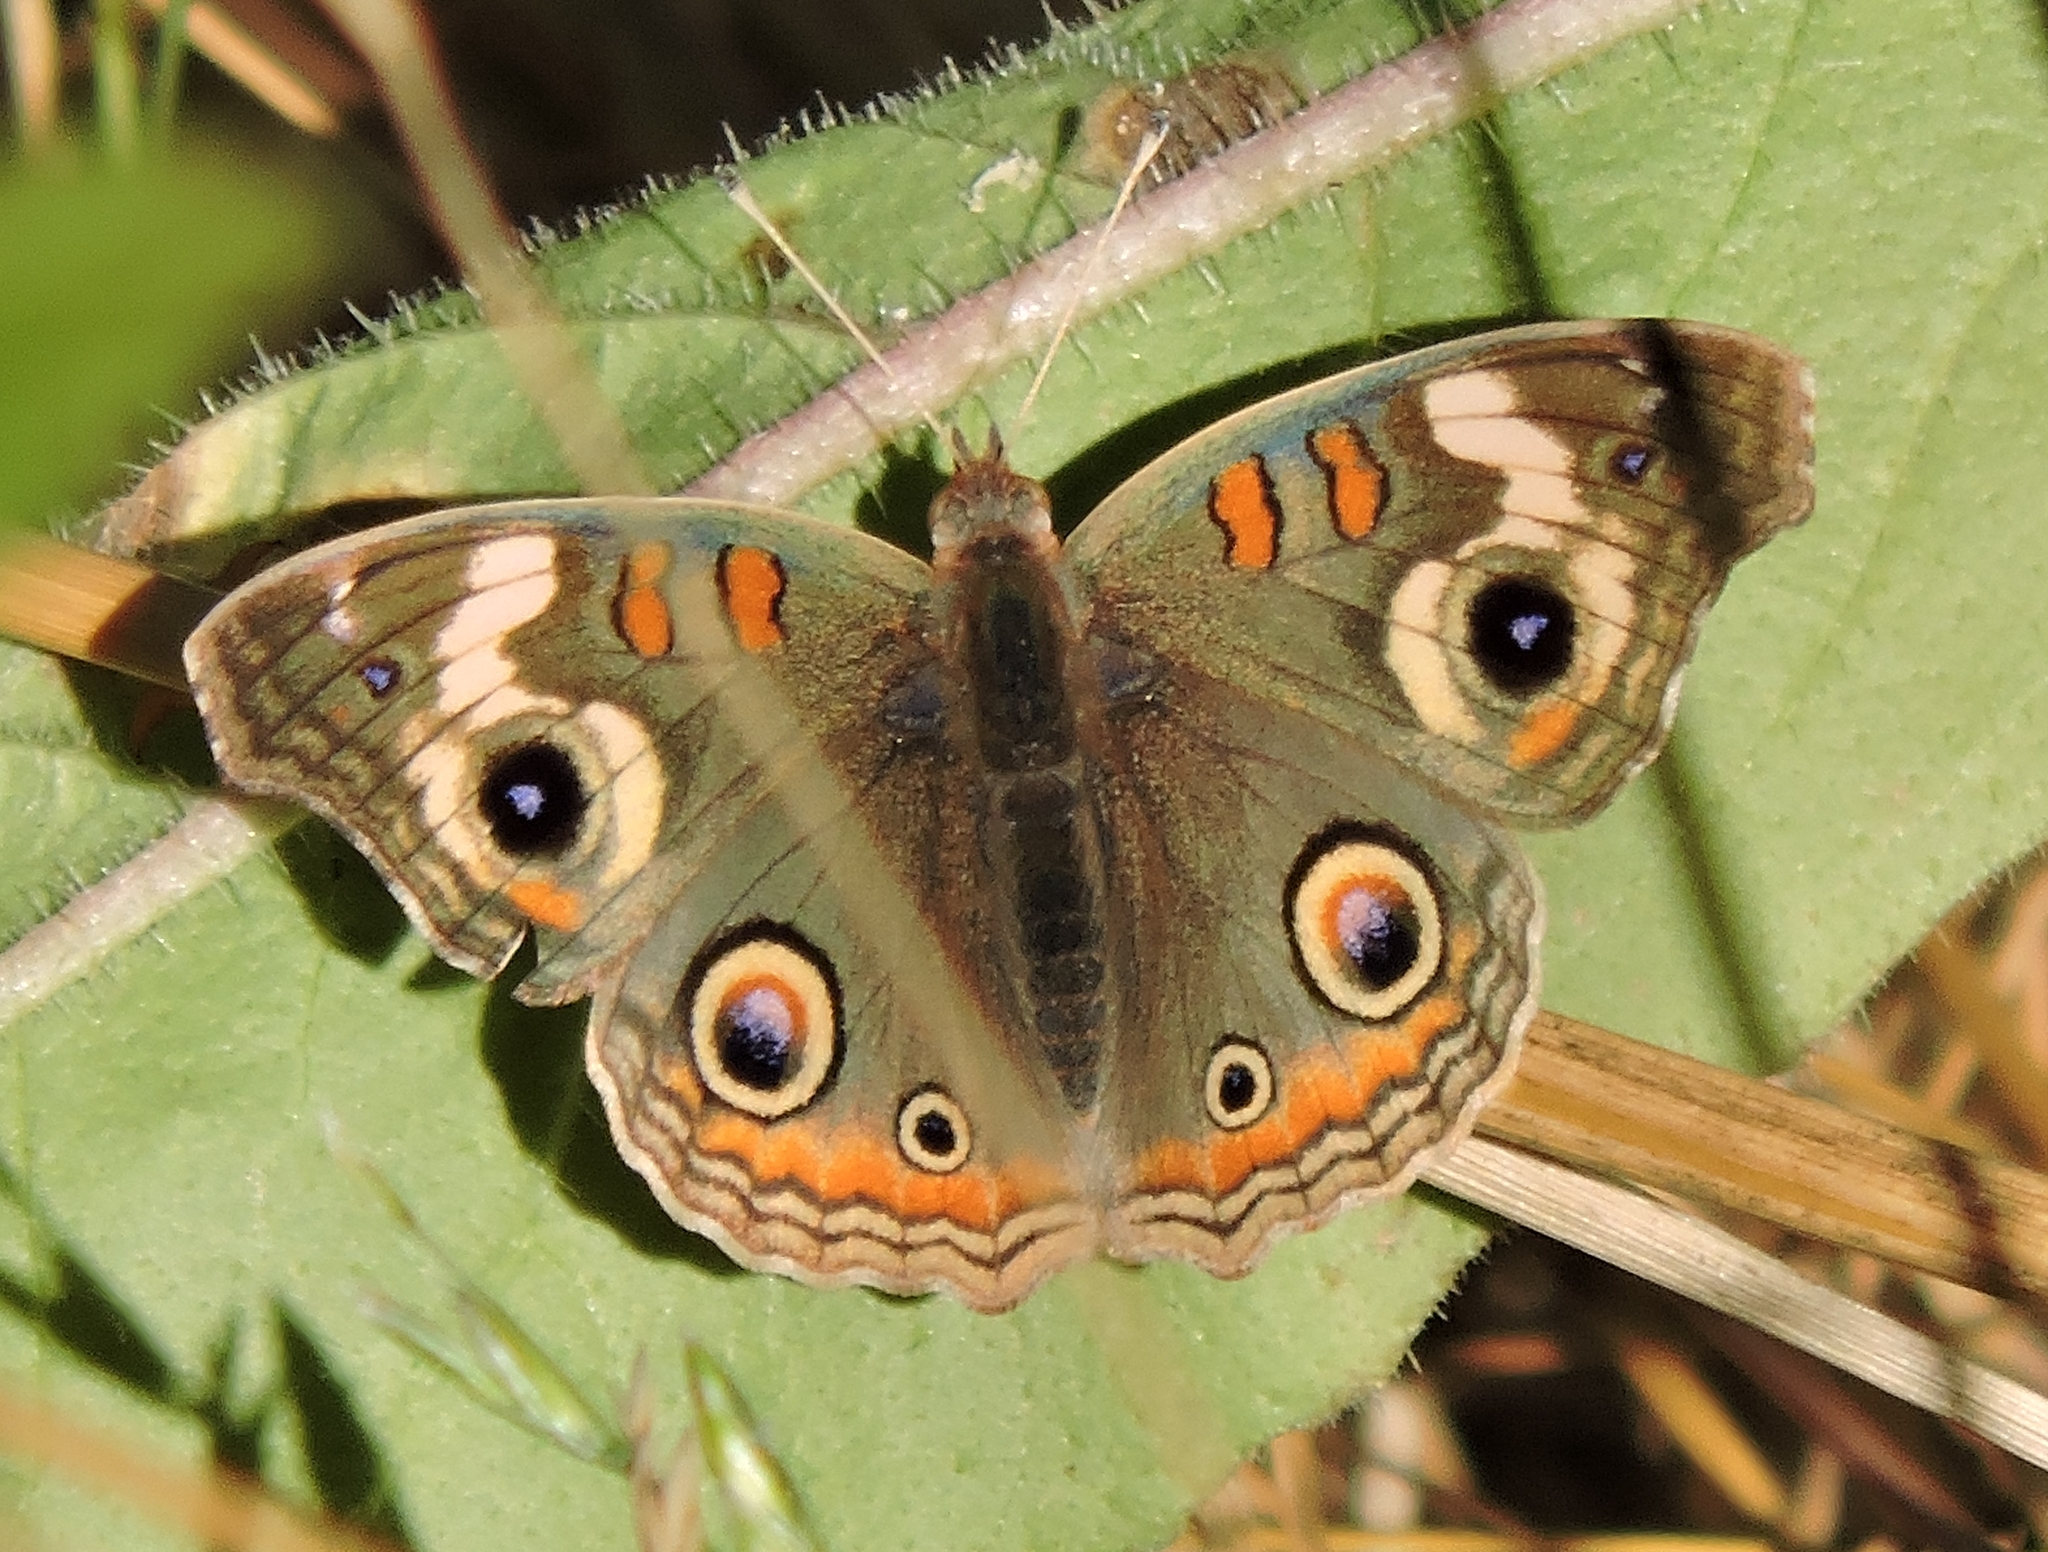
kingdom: Animalia
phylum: Arthropoda
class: Insecta
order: Lepidoptera
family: Nymphalidae
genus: Junonia
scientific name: Junonia grisea
